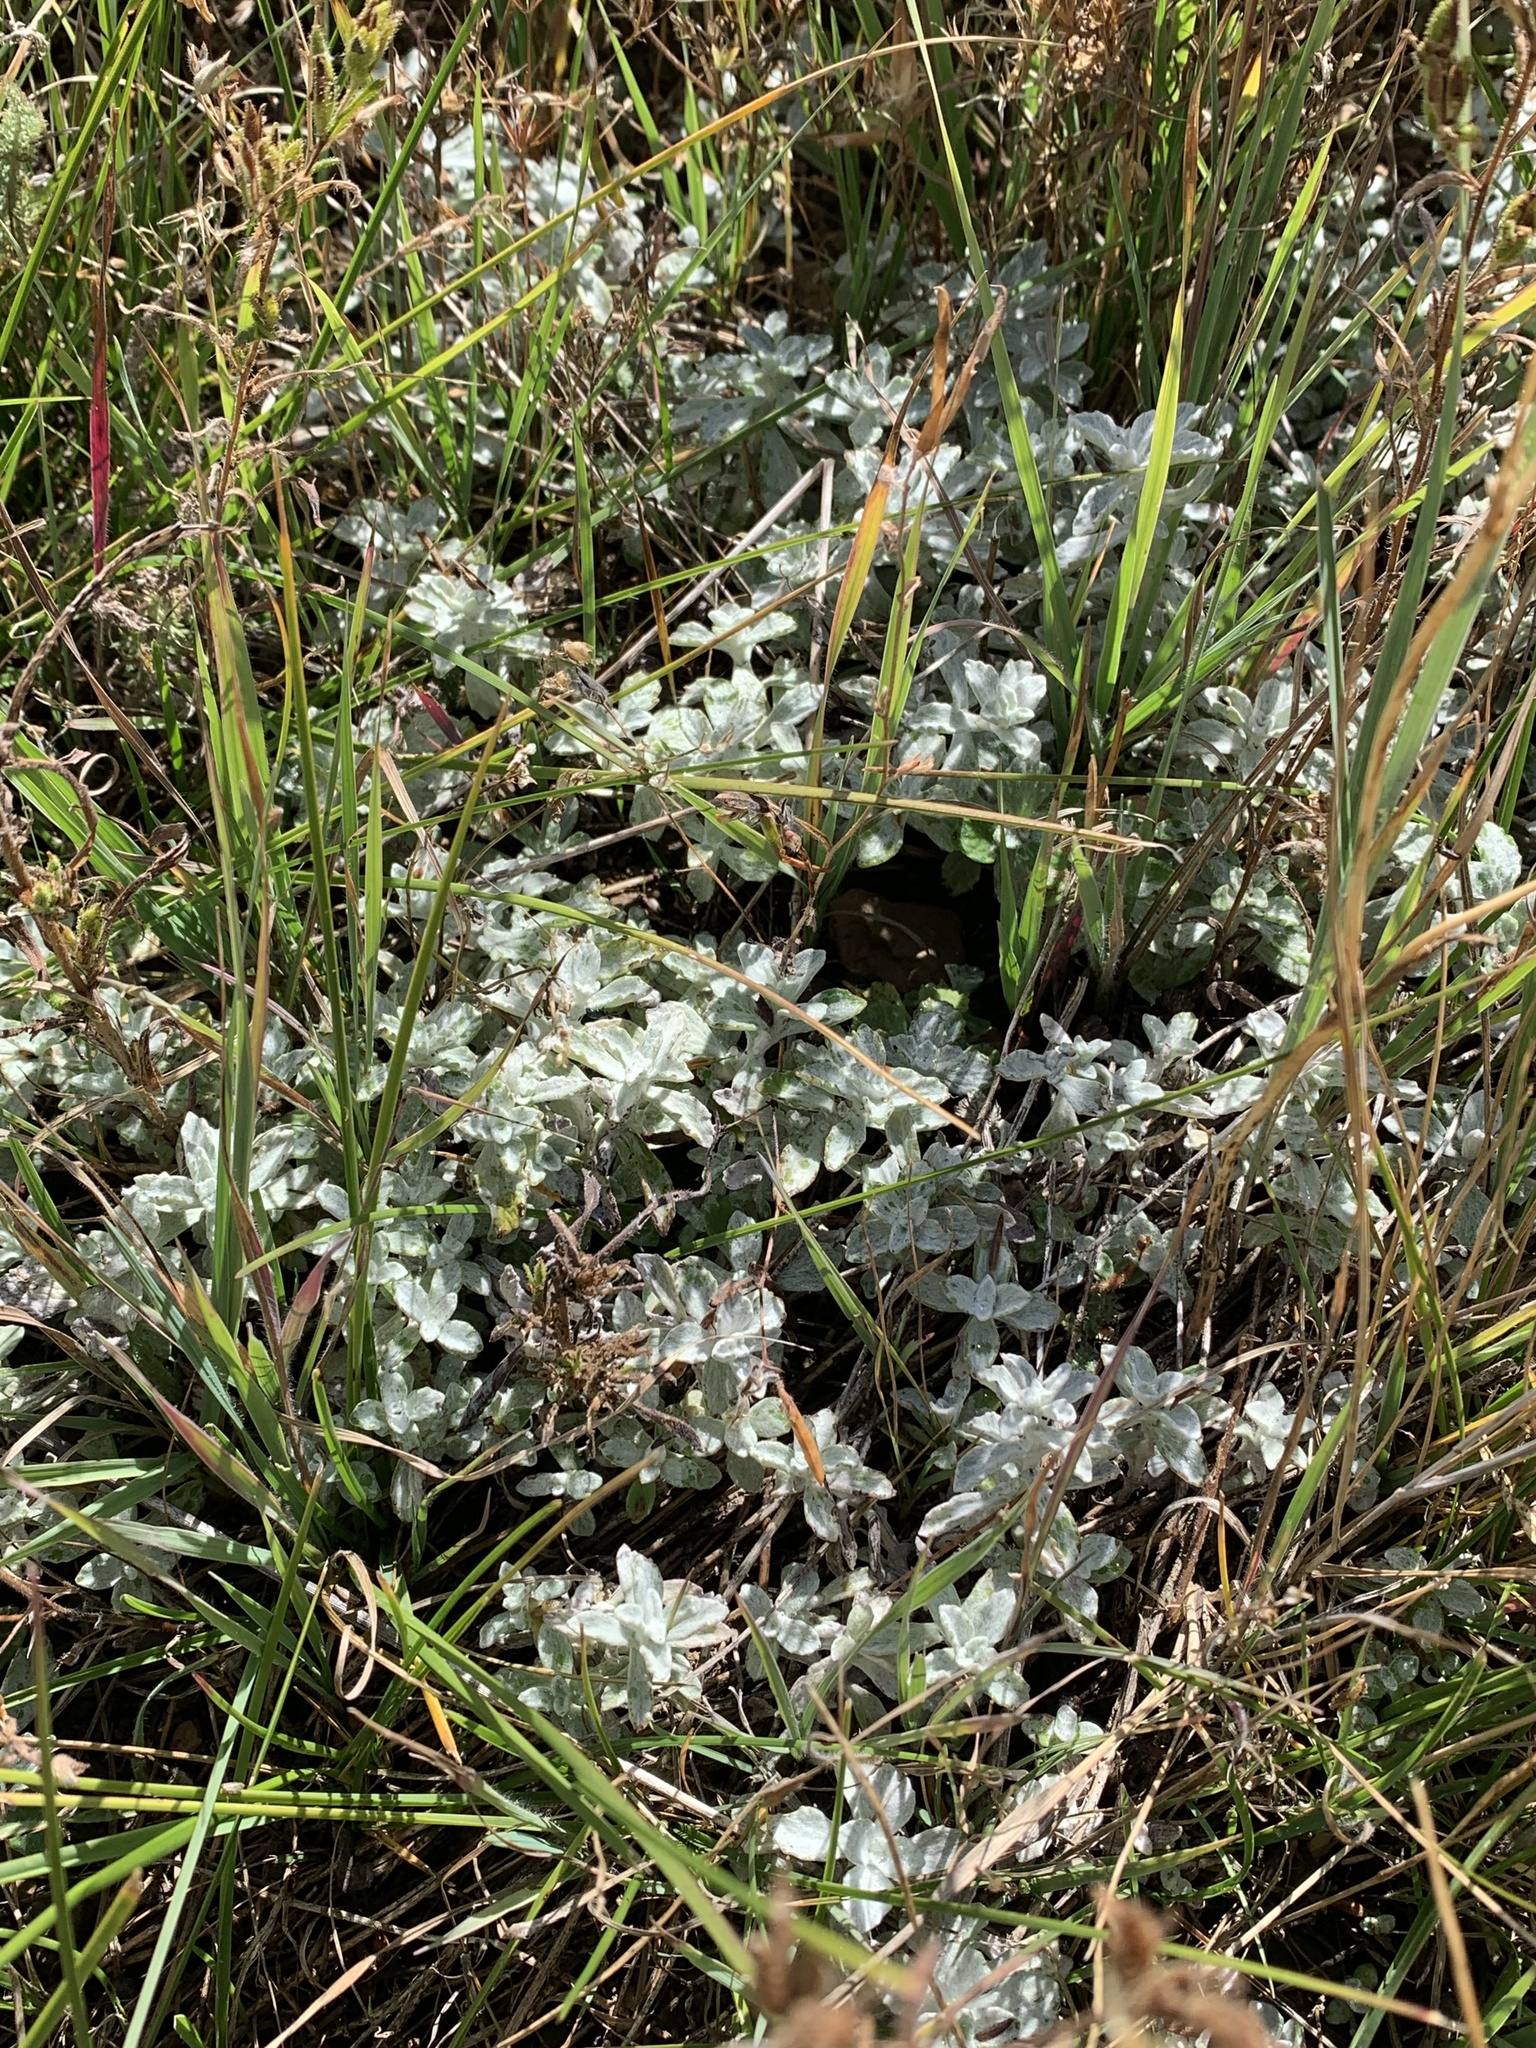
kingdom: Plantae
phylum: Tracheophyta
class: Magnoliopsida
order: Asterales
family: Asteraceae
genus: Eriophyllum
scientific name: Eriophyllum lanatum
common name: Common woolly-sunflower
